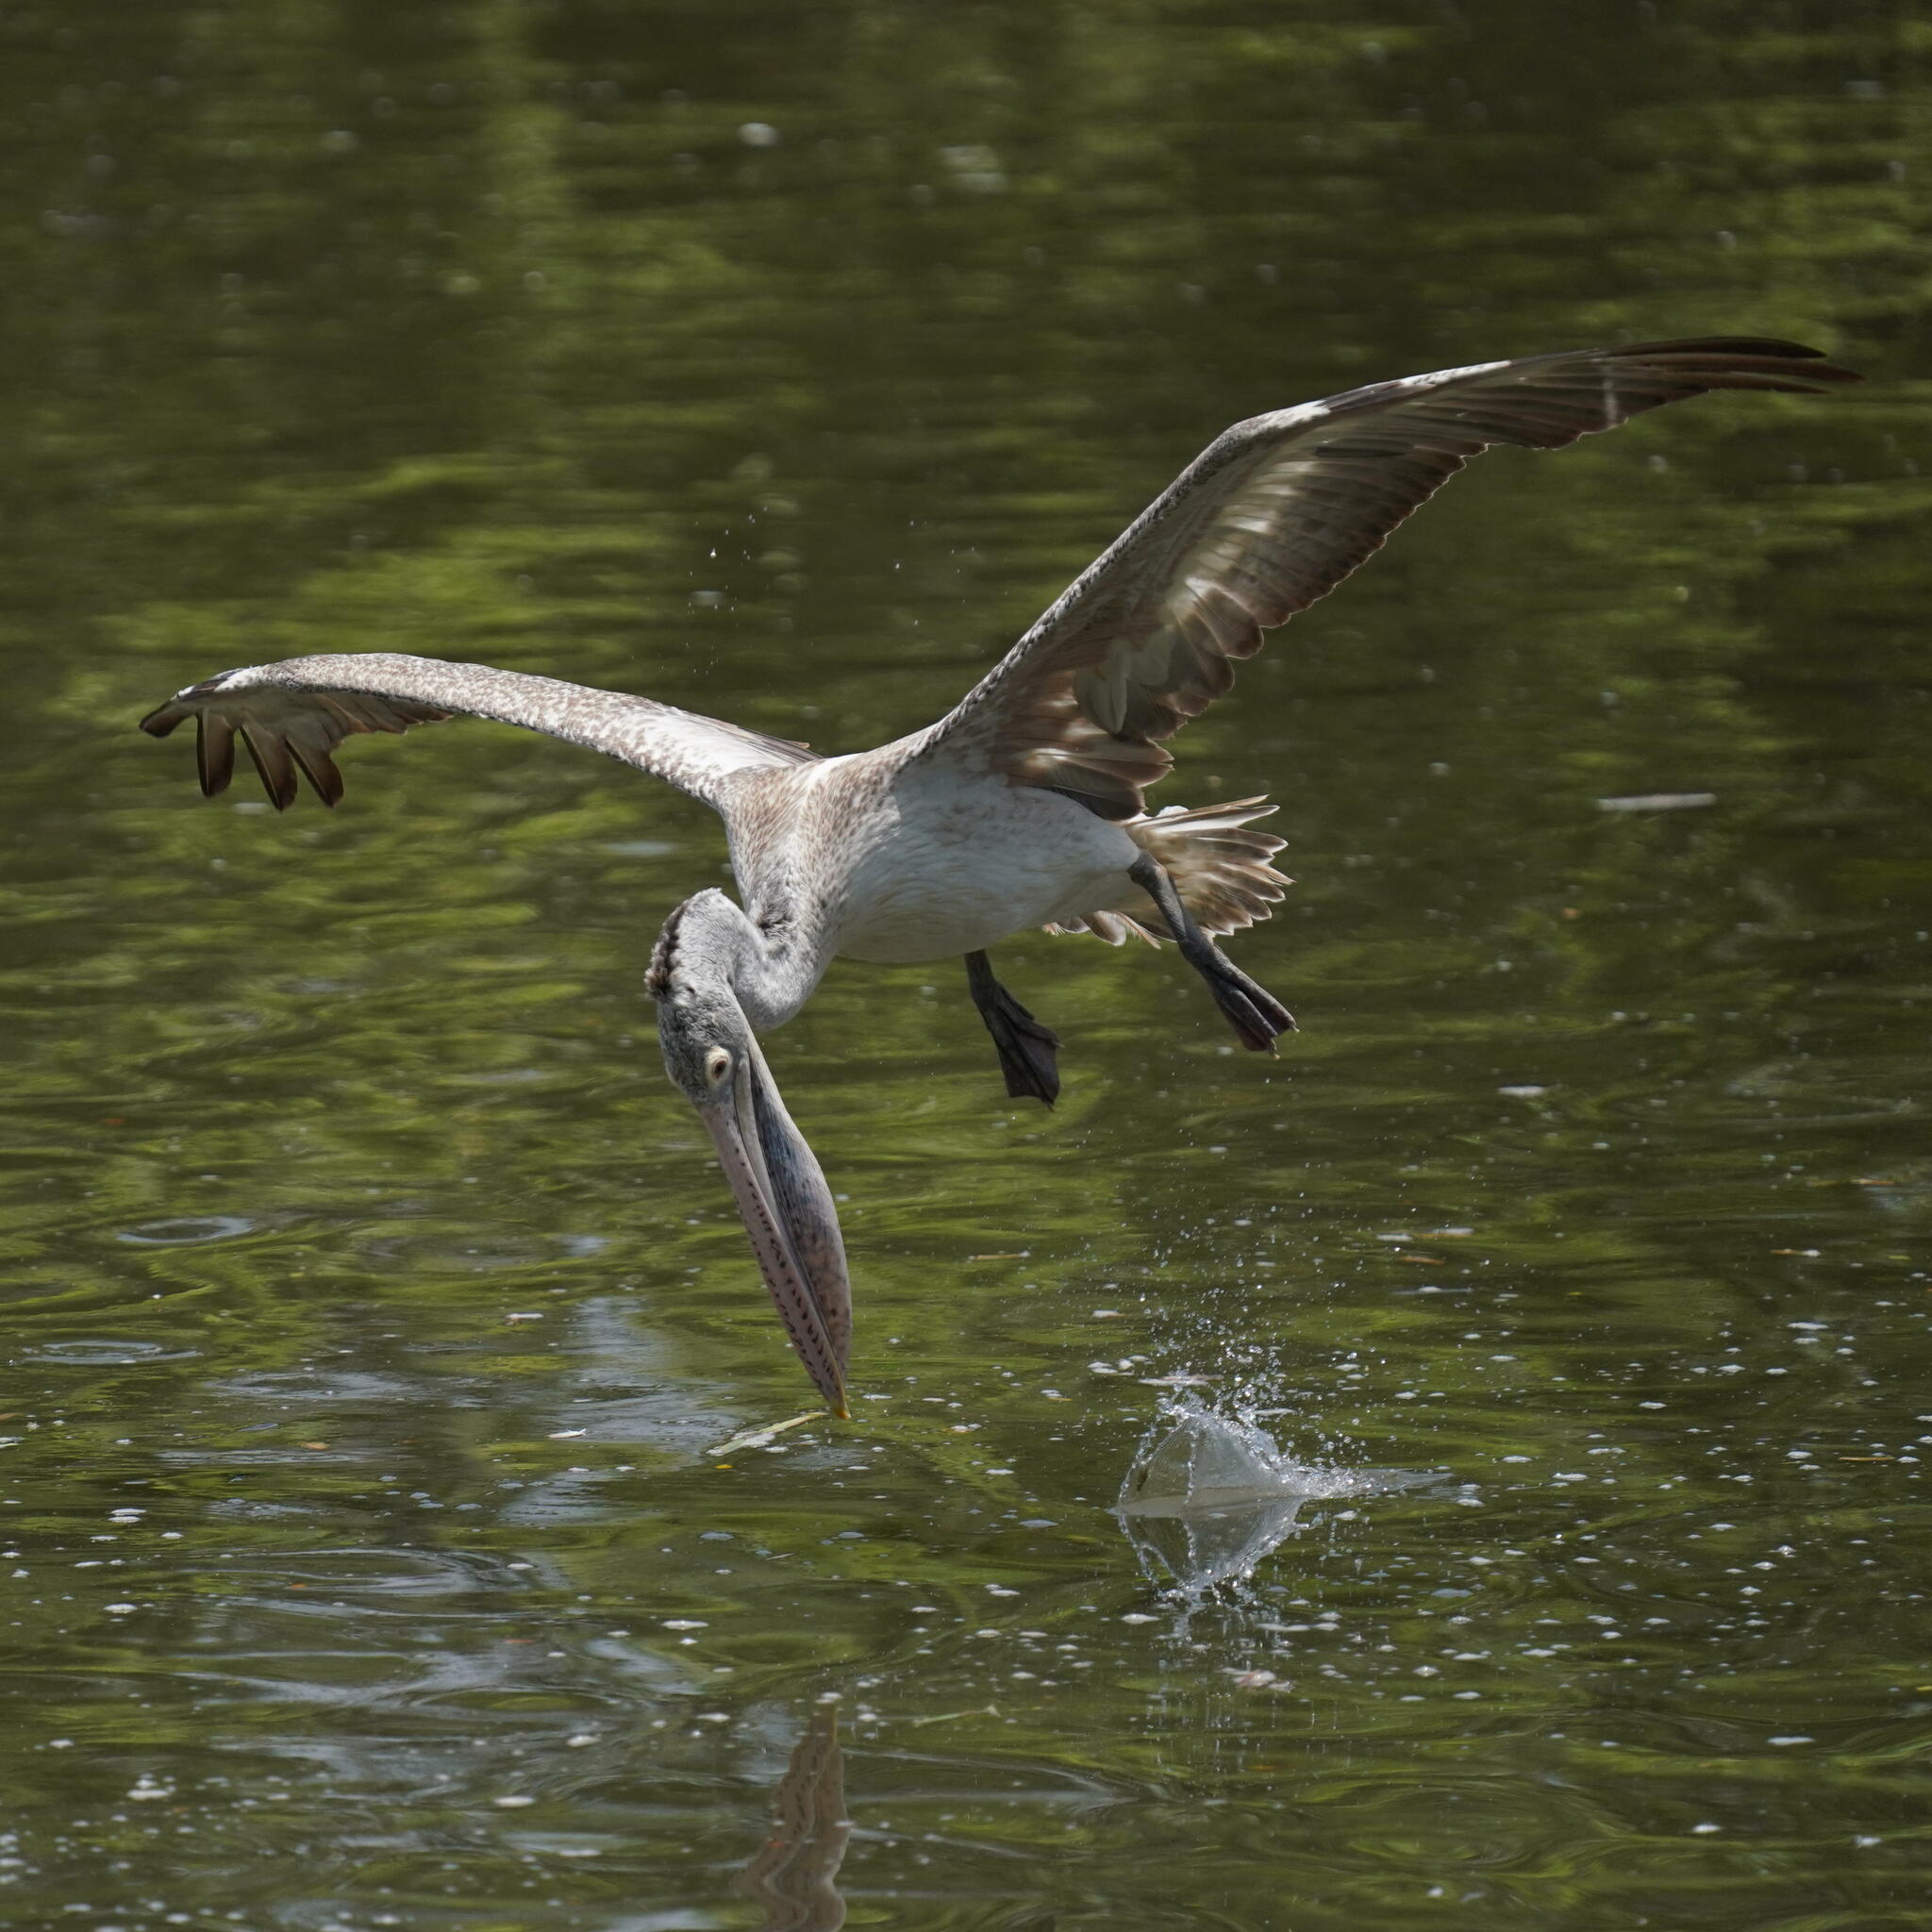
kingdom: Animalia
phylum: Chordata
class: Aves
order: Pelecaniformes
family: Pelecanidae
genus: Pelecanus
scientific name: Pelecanus philippensis
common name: Spot-billed pelican
